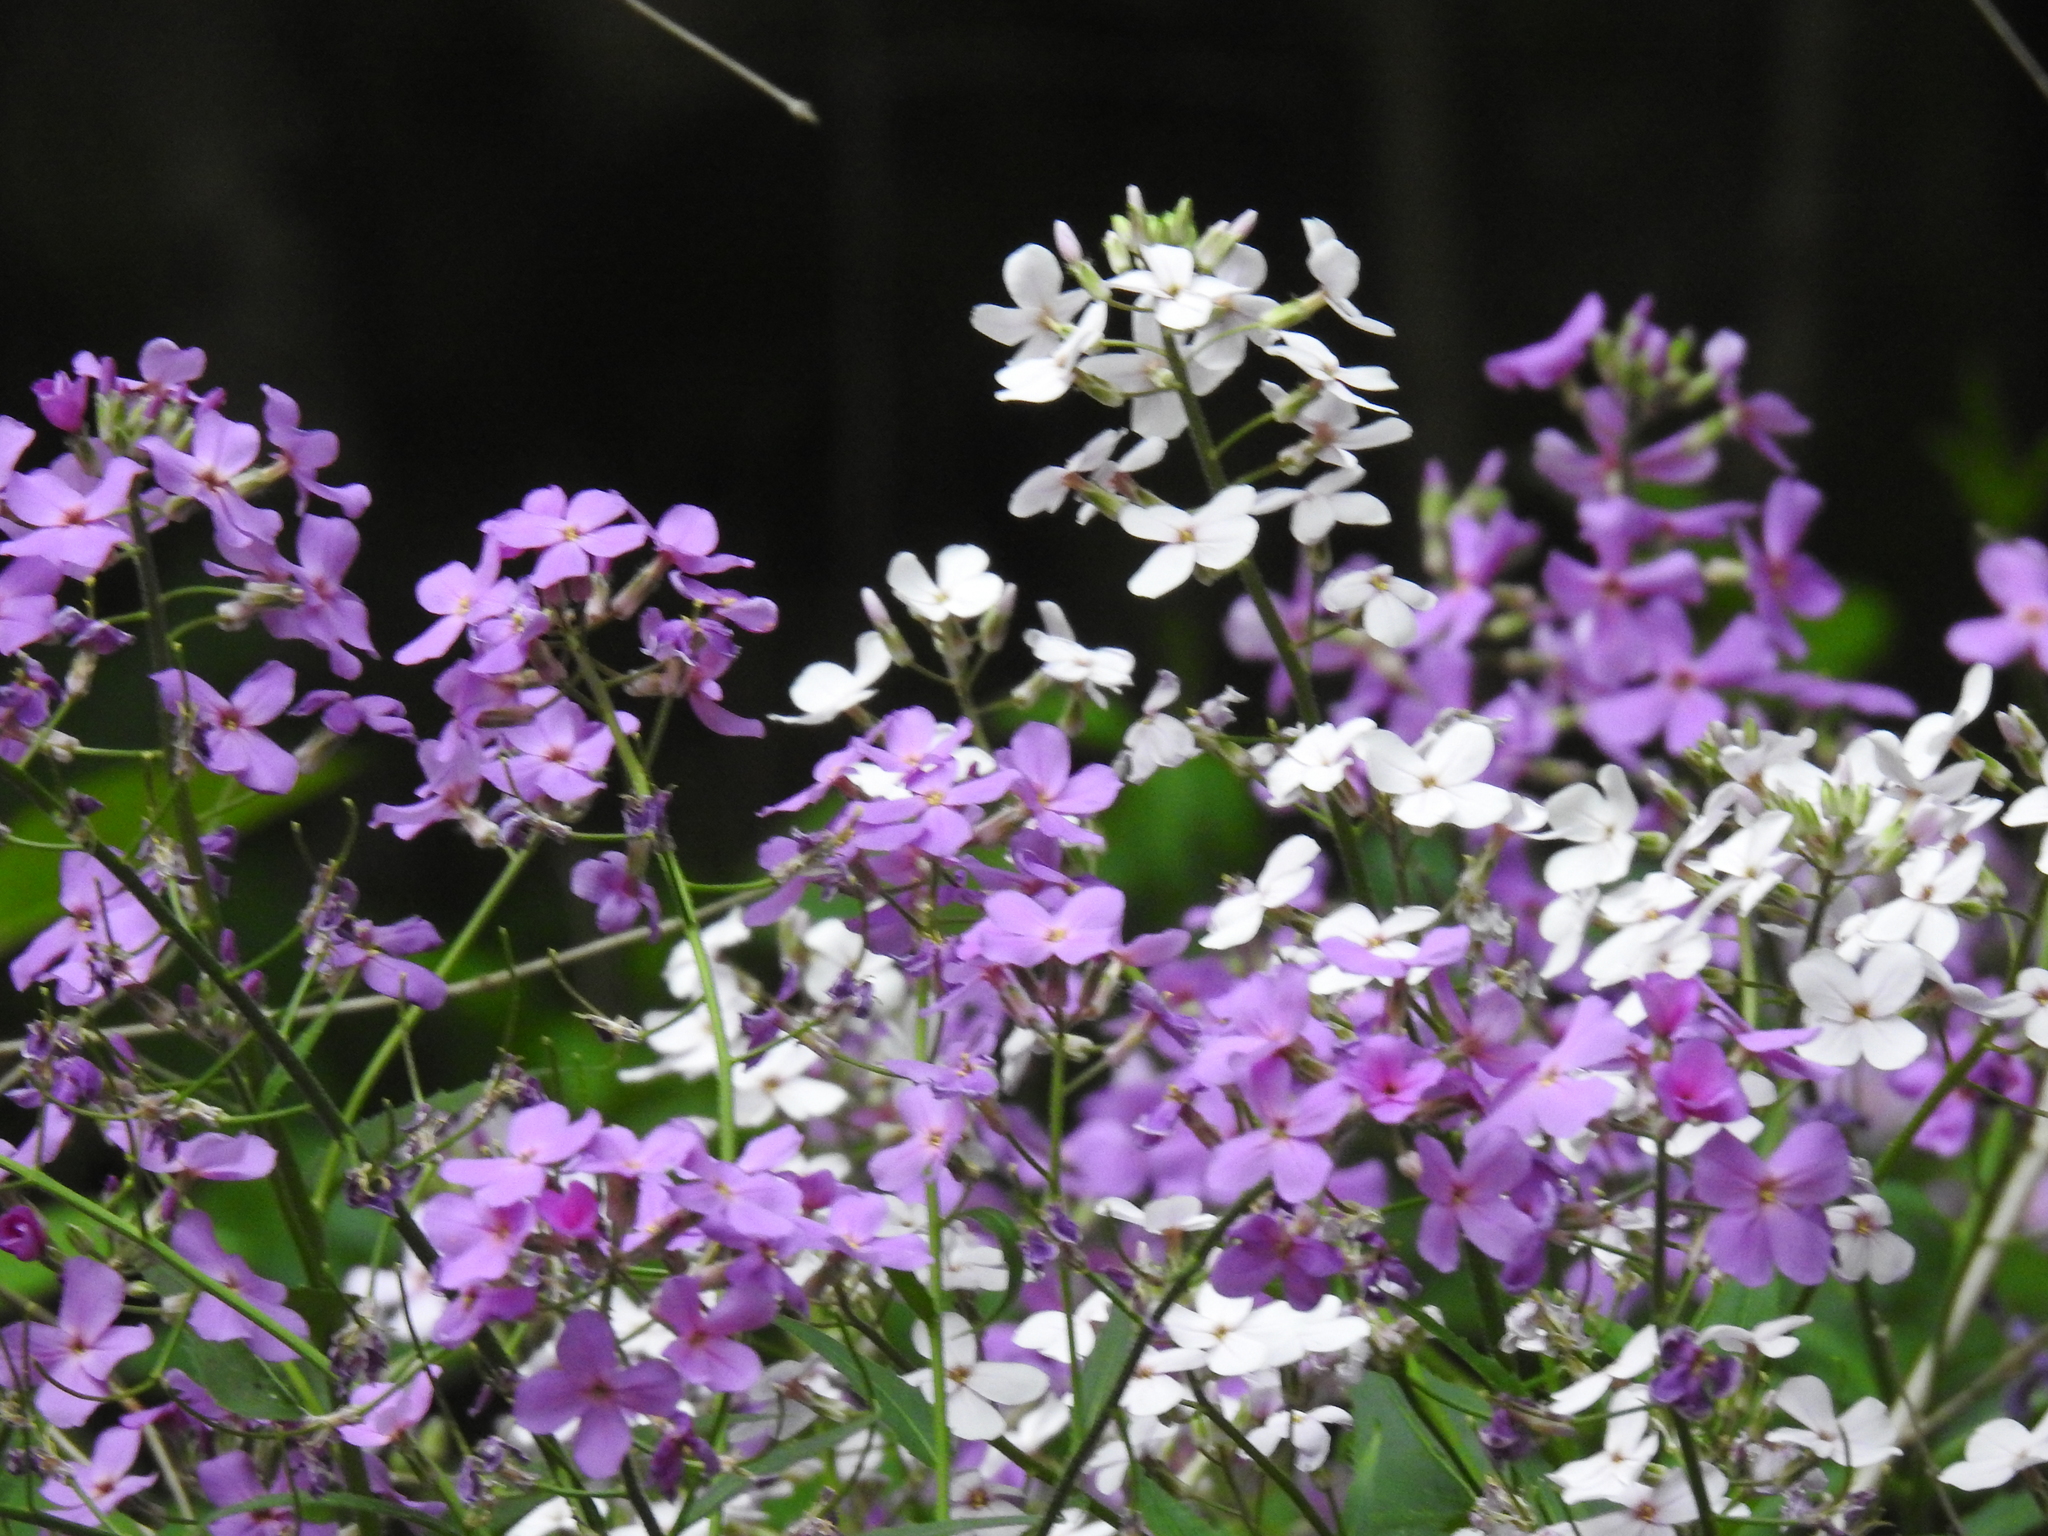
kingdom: Plantae
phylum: Tracheophyta
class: Magnoliopsida
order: Brassicales
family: Brassicaceae
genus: Hesperis
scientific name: Hesperis matronalis
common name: Dame's-violet
